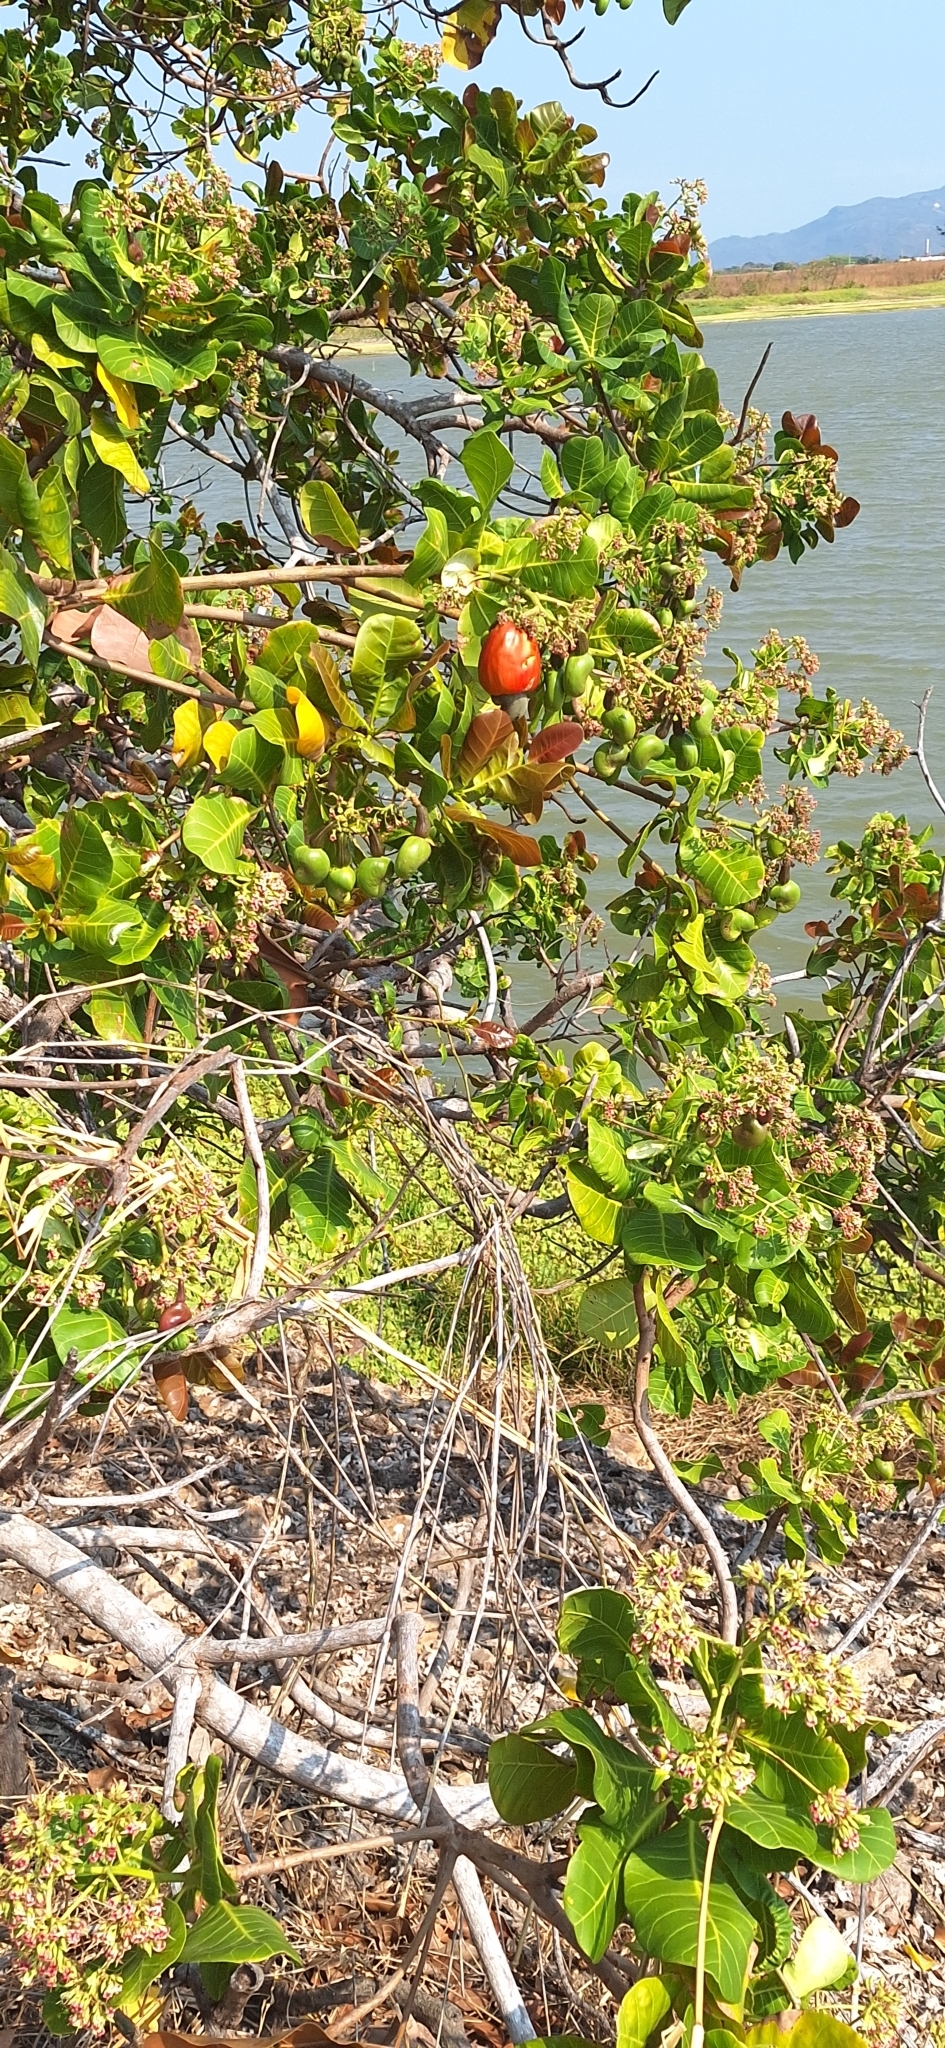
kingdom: Plantae
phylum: Tracheophyta
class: Magnoliopsida
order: Sapindales
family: Anacardiaceae
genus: Anacardium
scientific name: Anacardium occidentale
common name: Cashew
